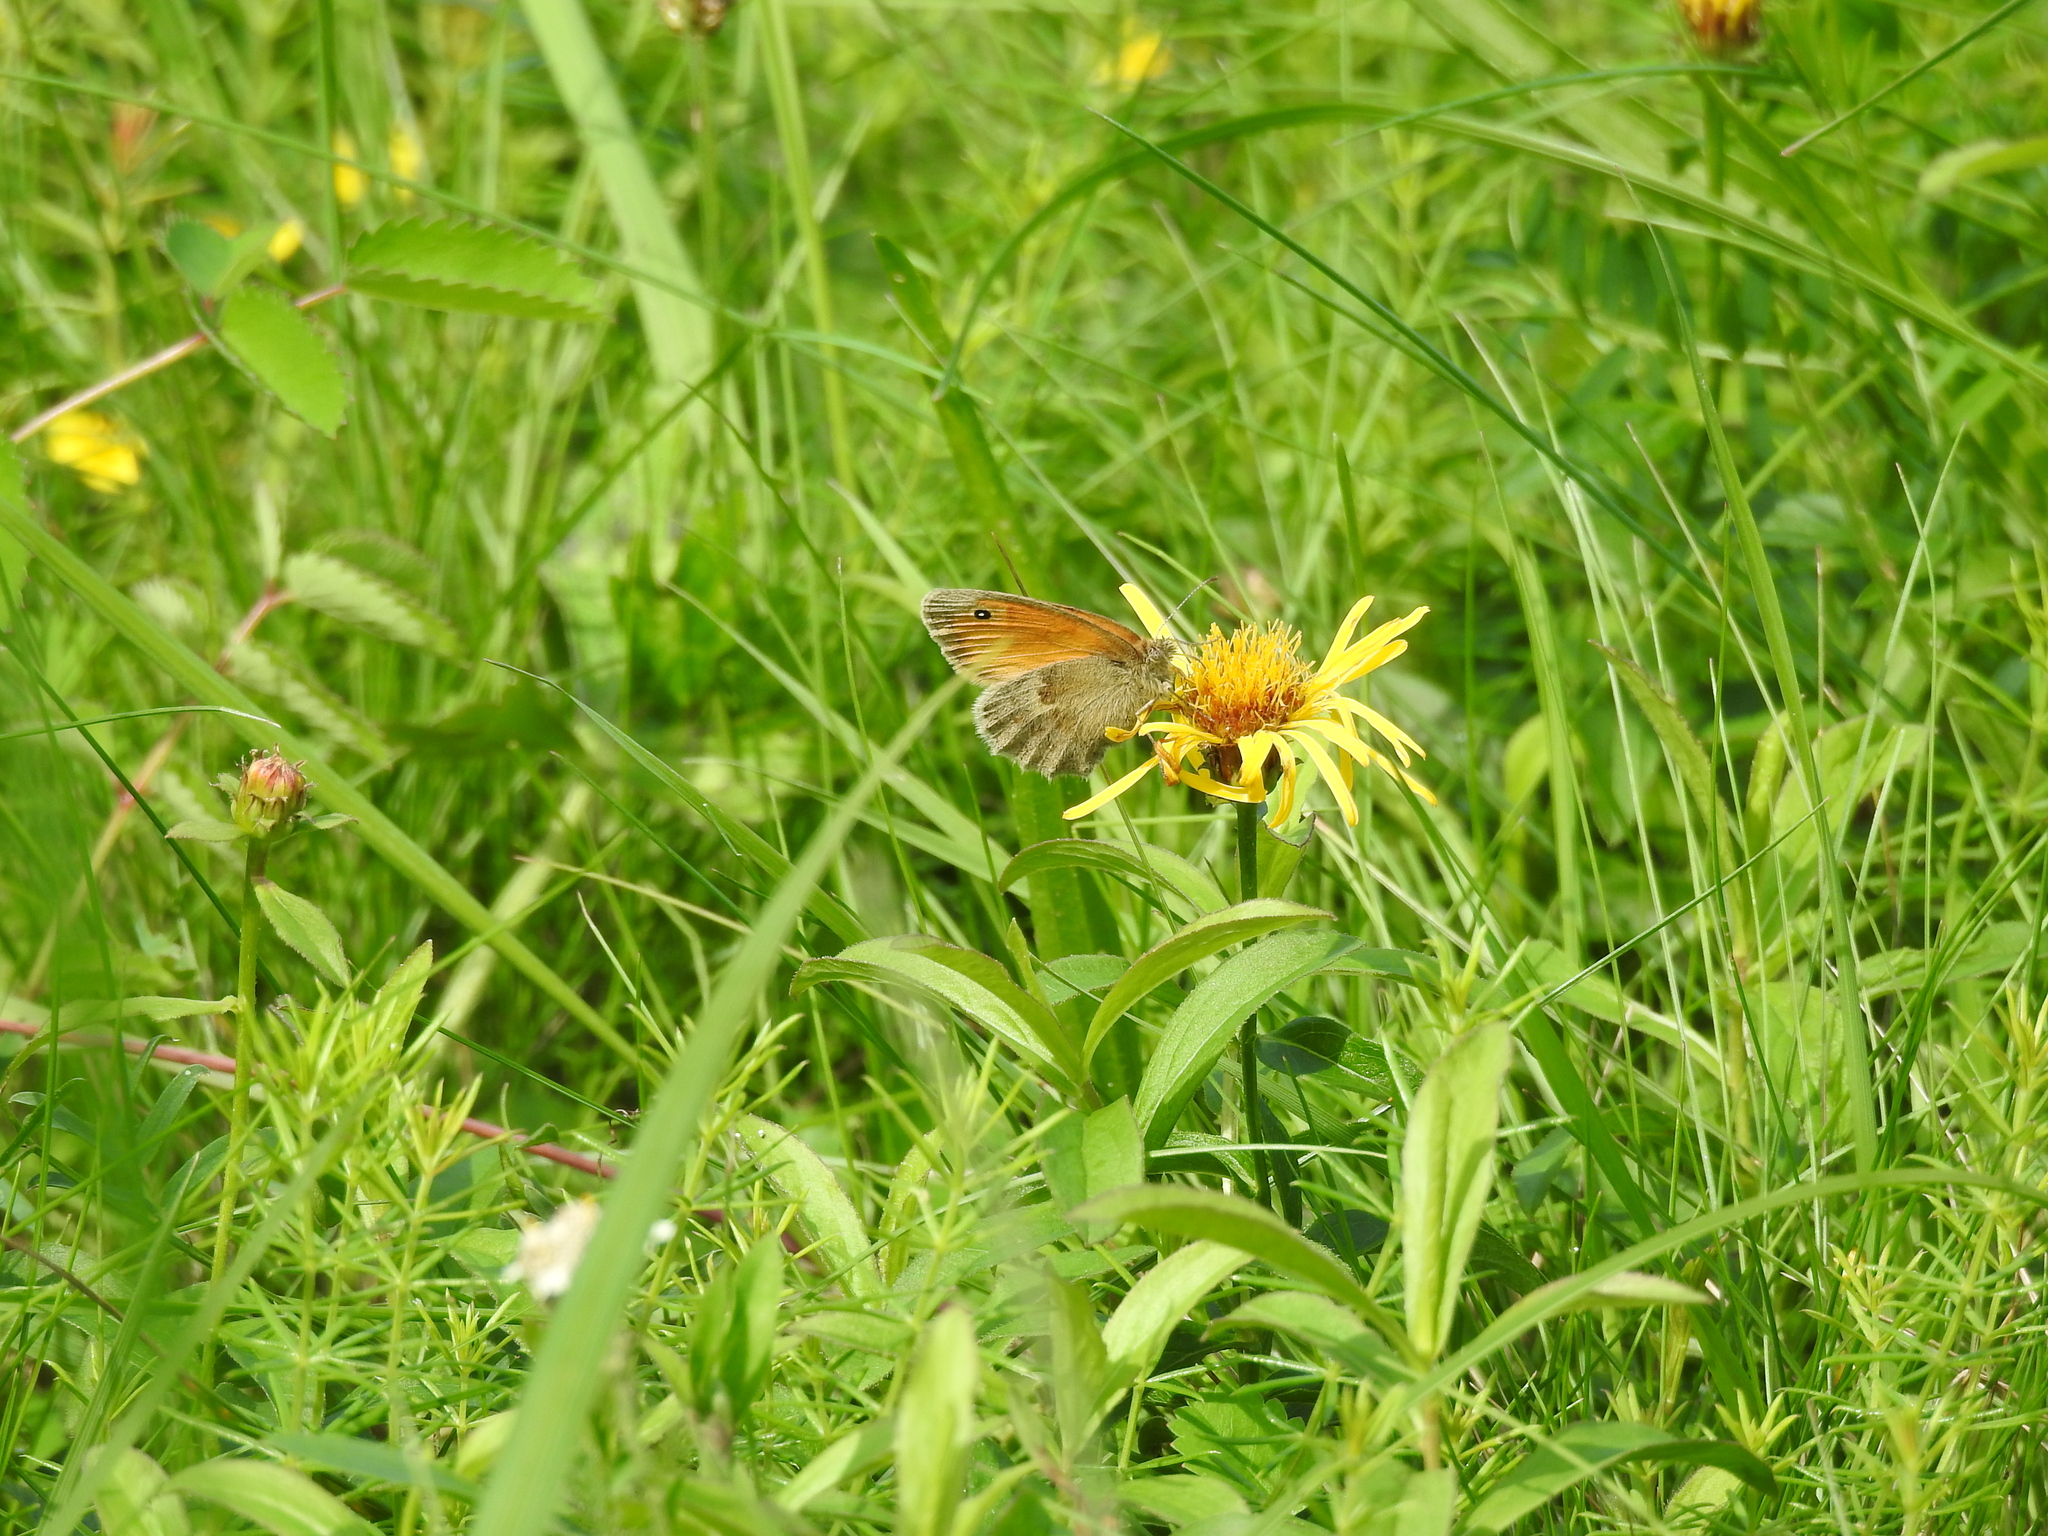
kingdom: Animalia
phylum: Arthropoda
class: Insecta
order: Lepidoptera
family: Nymphalidae
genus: Coenonympha
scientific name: Coenonympha pamphilus
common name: Small heath
